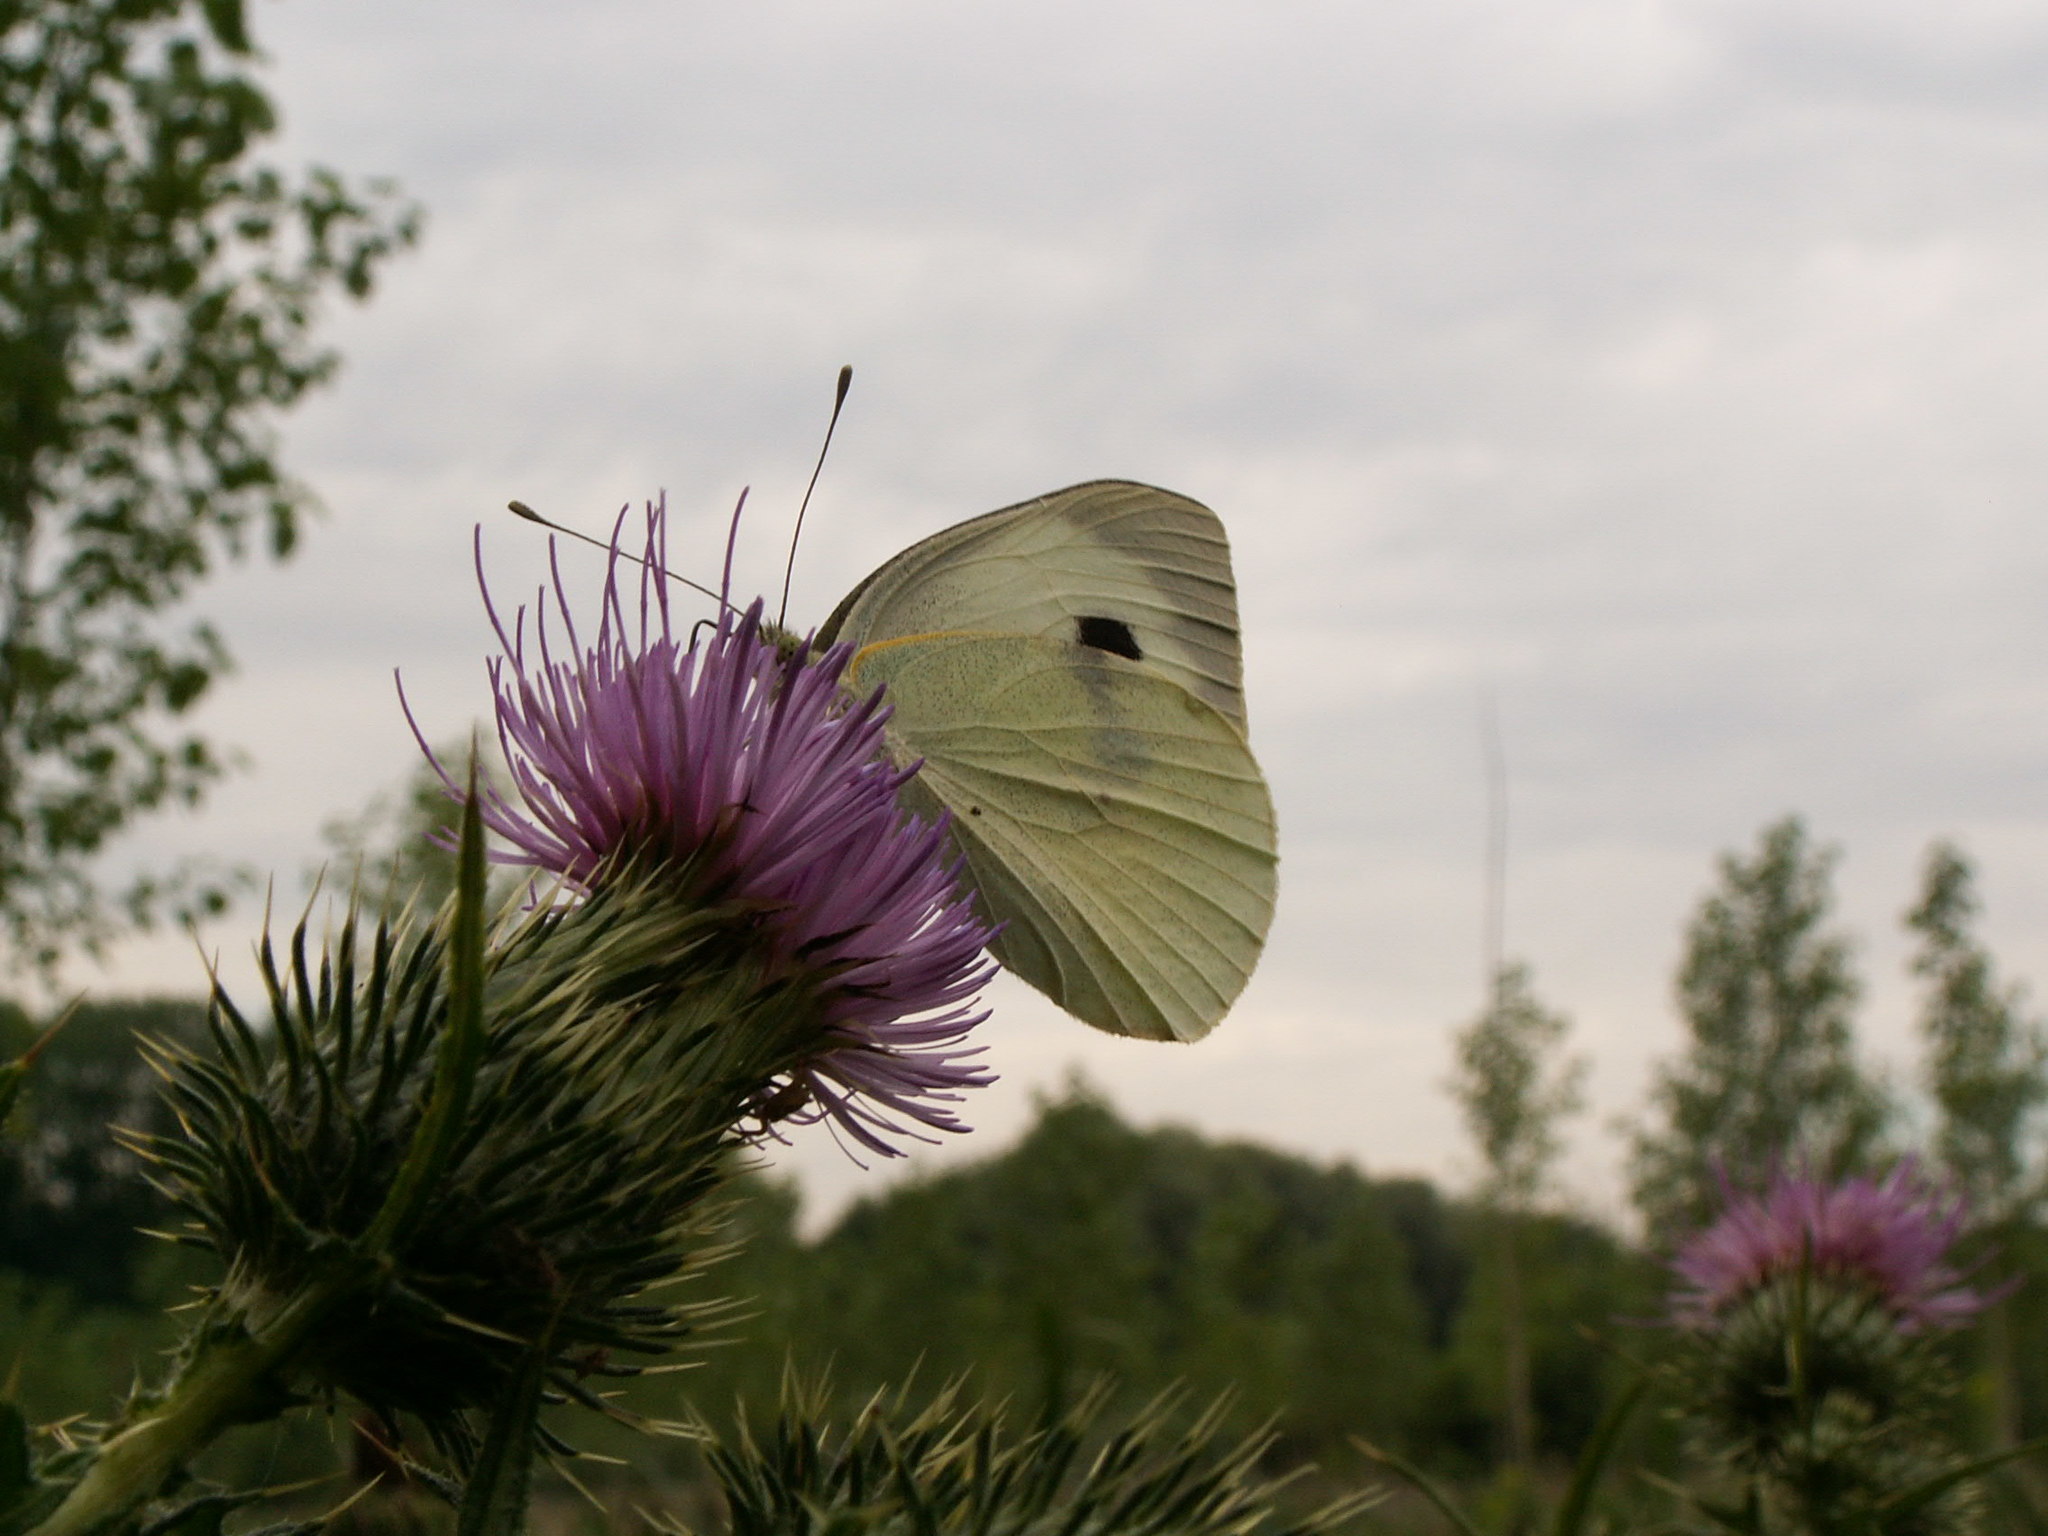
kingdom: Animalia
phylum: Arthropoda
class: Insecta
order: Lepidoptera
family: Pieridae
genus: Pieris
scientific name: Pieris brassicae
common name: Large white
